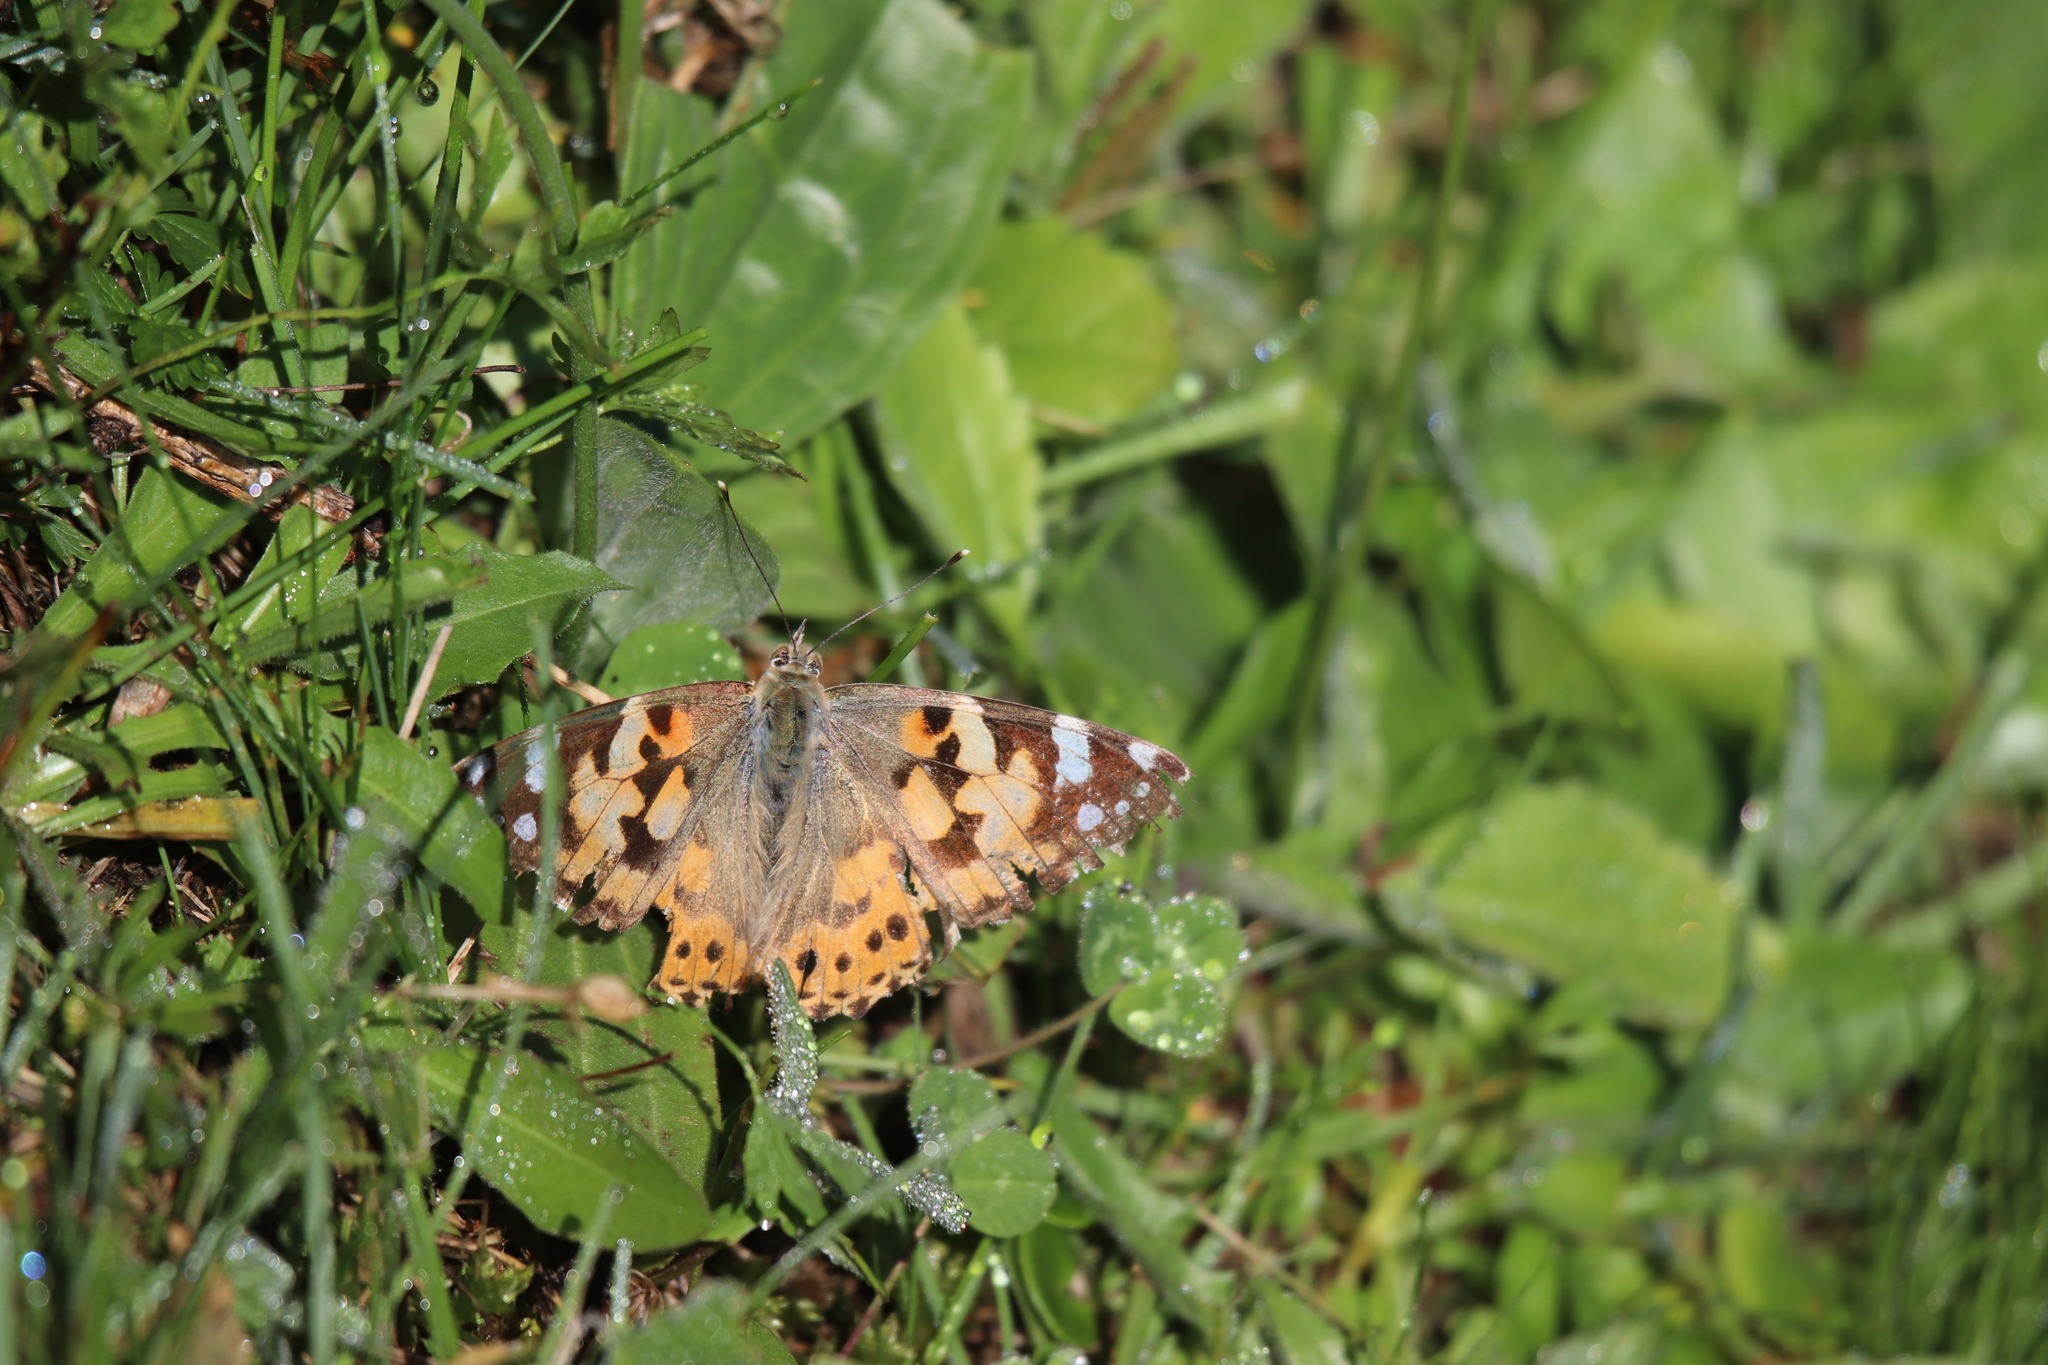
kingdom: Animalia
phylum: Arthropoda
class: Insecta
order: Lepidoptera
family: Nymphalidae
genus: Vanessa
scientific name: Vanessa cardui
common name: Painted lady
